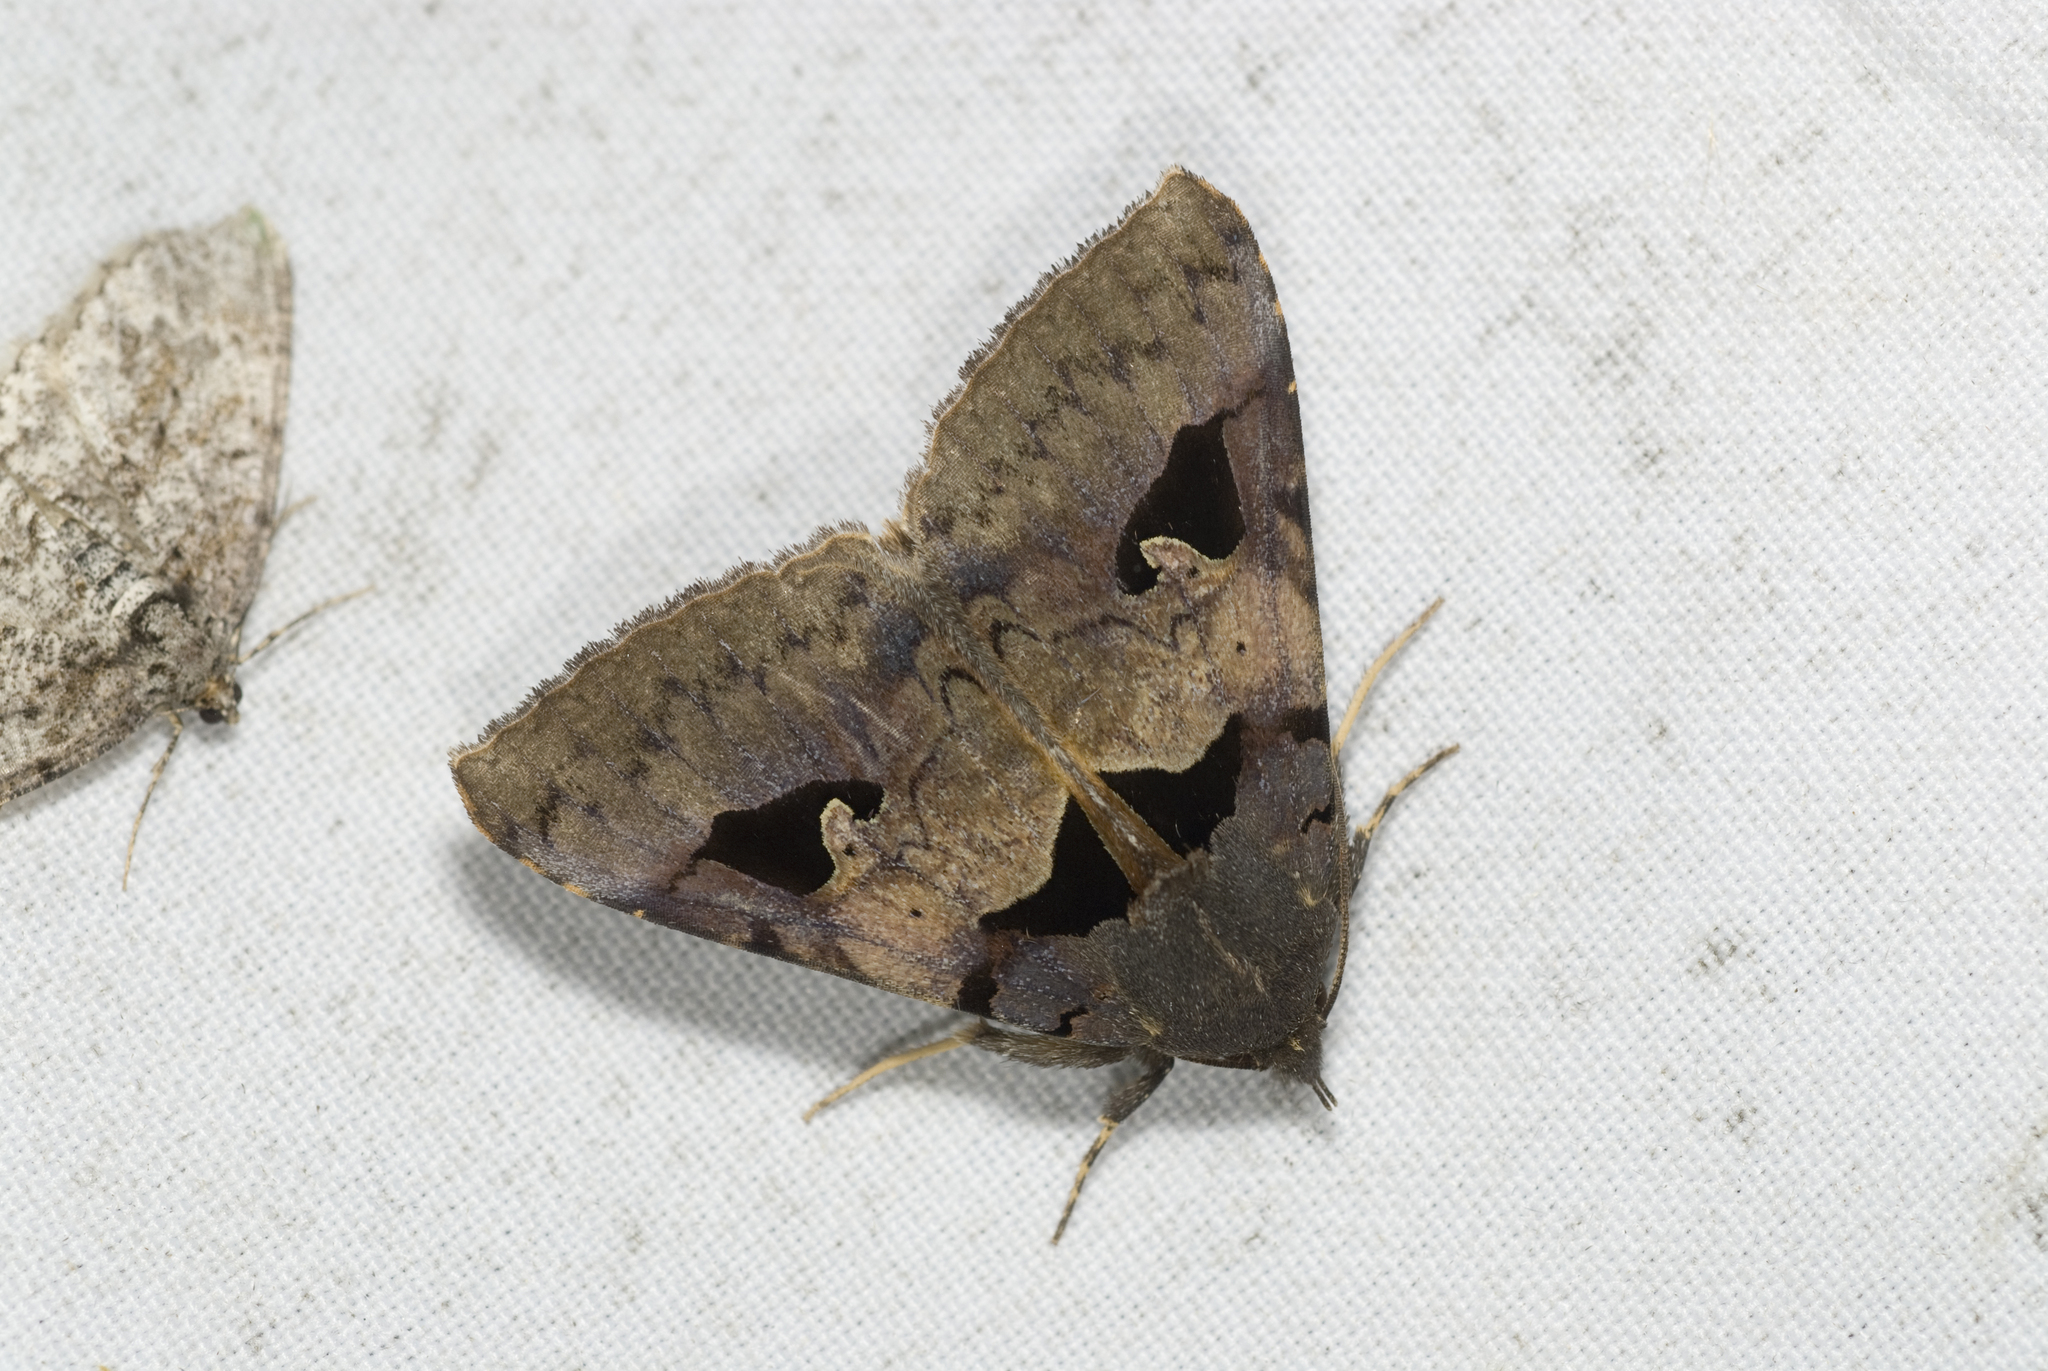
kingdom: Animalia
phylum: Arthropoda
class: Insecta
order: Lepidoptera
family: Erebidae
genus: Avatha
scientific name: Avatha chinensis
